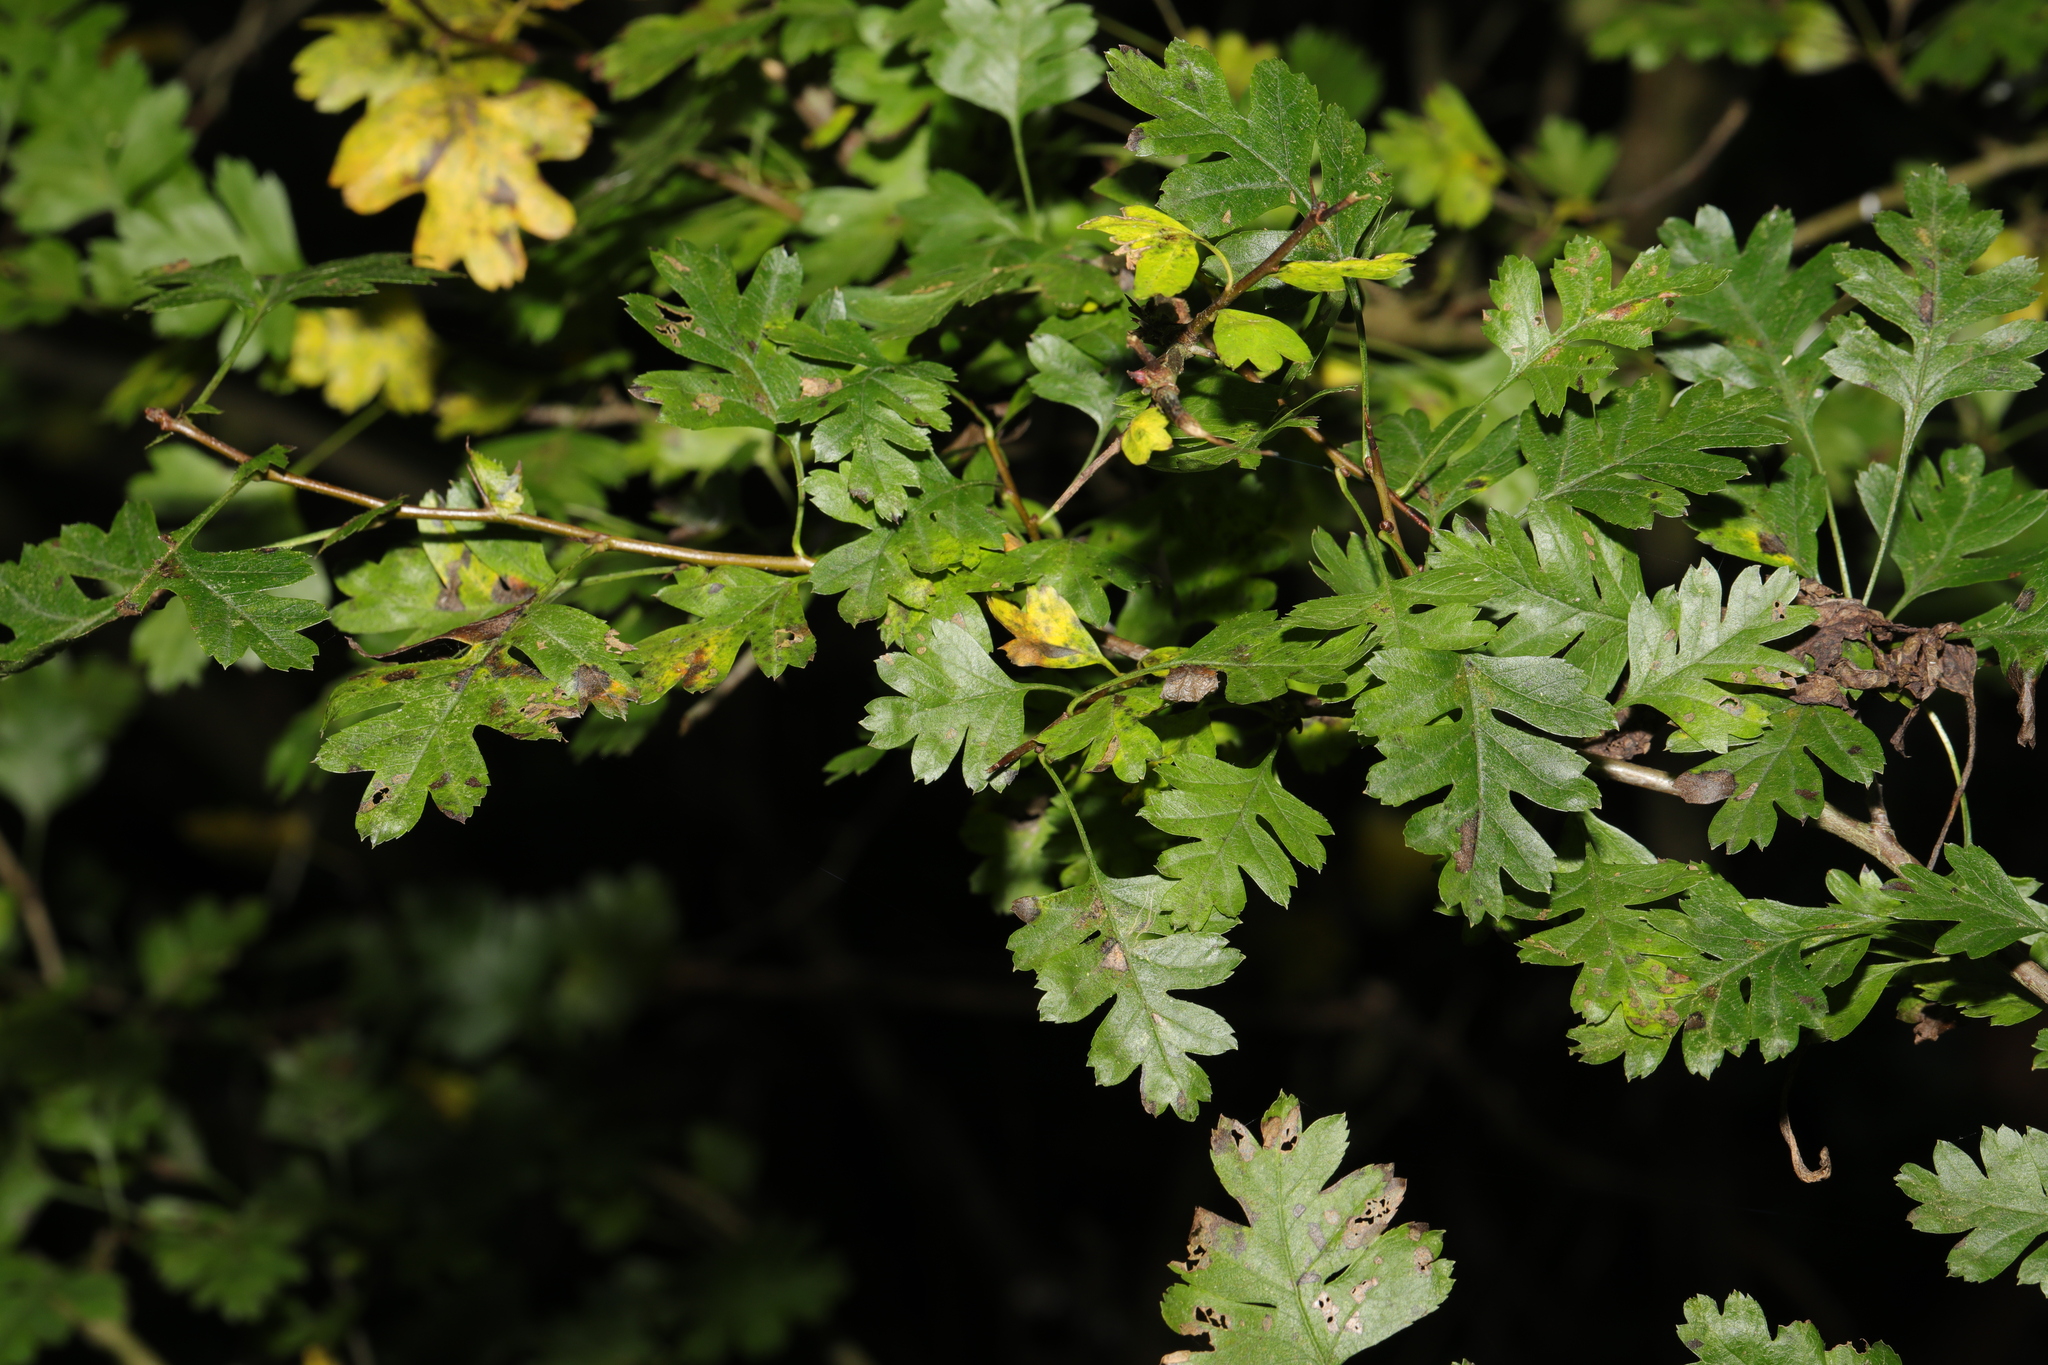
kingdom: Plantae
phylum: Tracheophyta
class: Magnoliopsida
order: Rosales
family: Rosaceae
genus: Crataegus
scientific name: Crataegus monogyna
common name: Hawthorn
